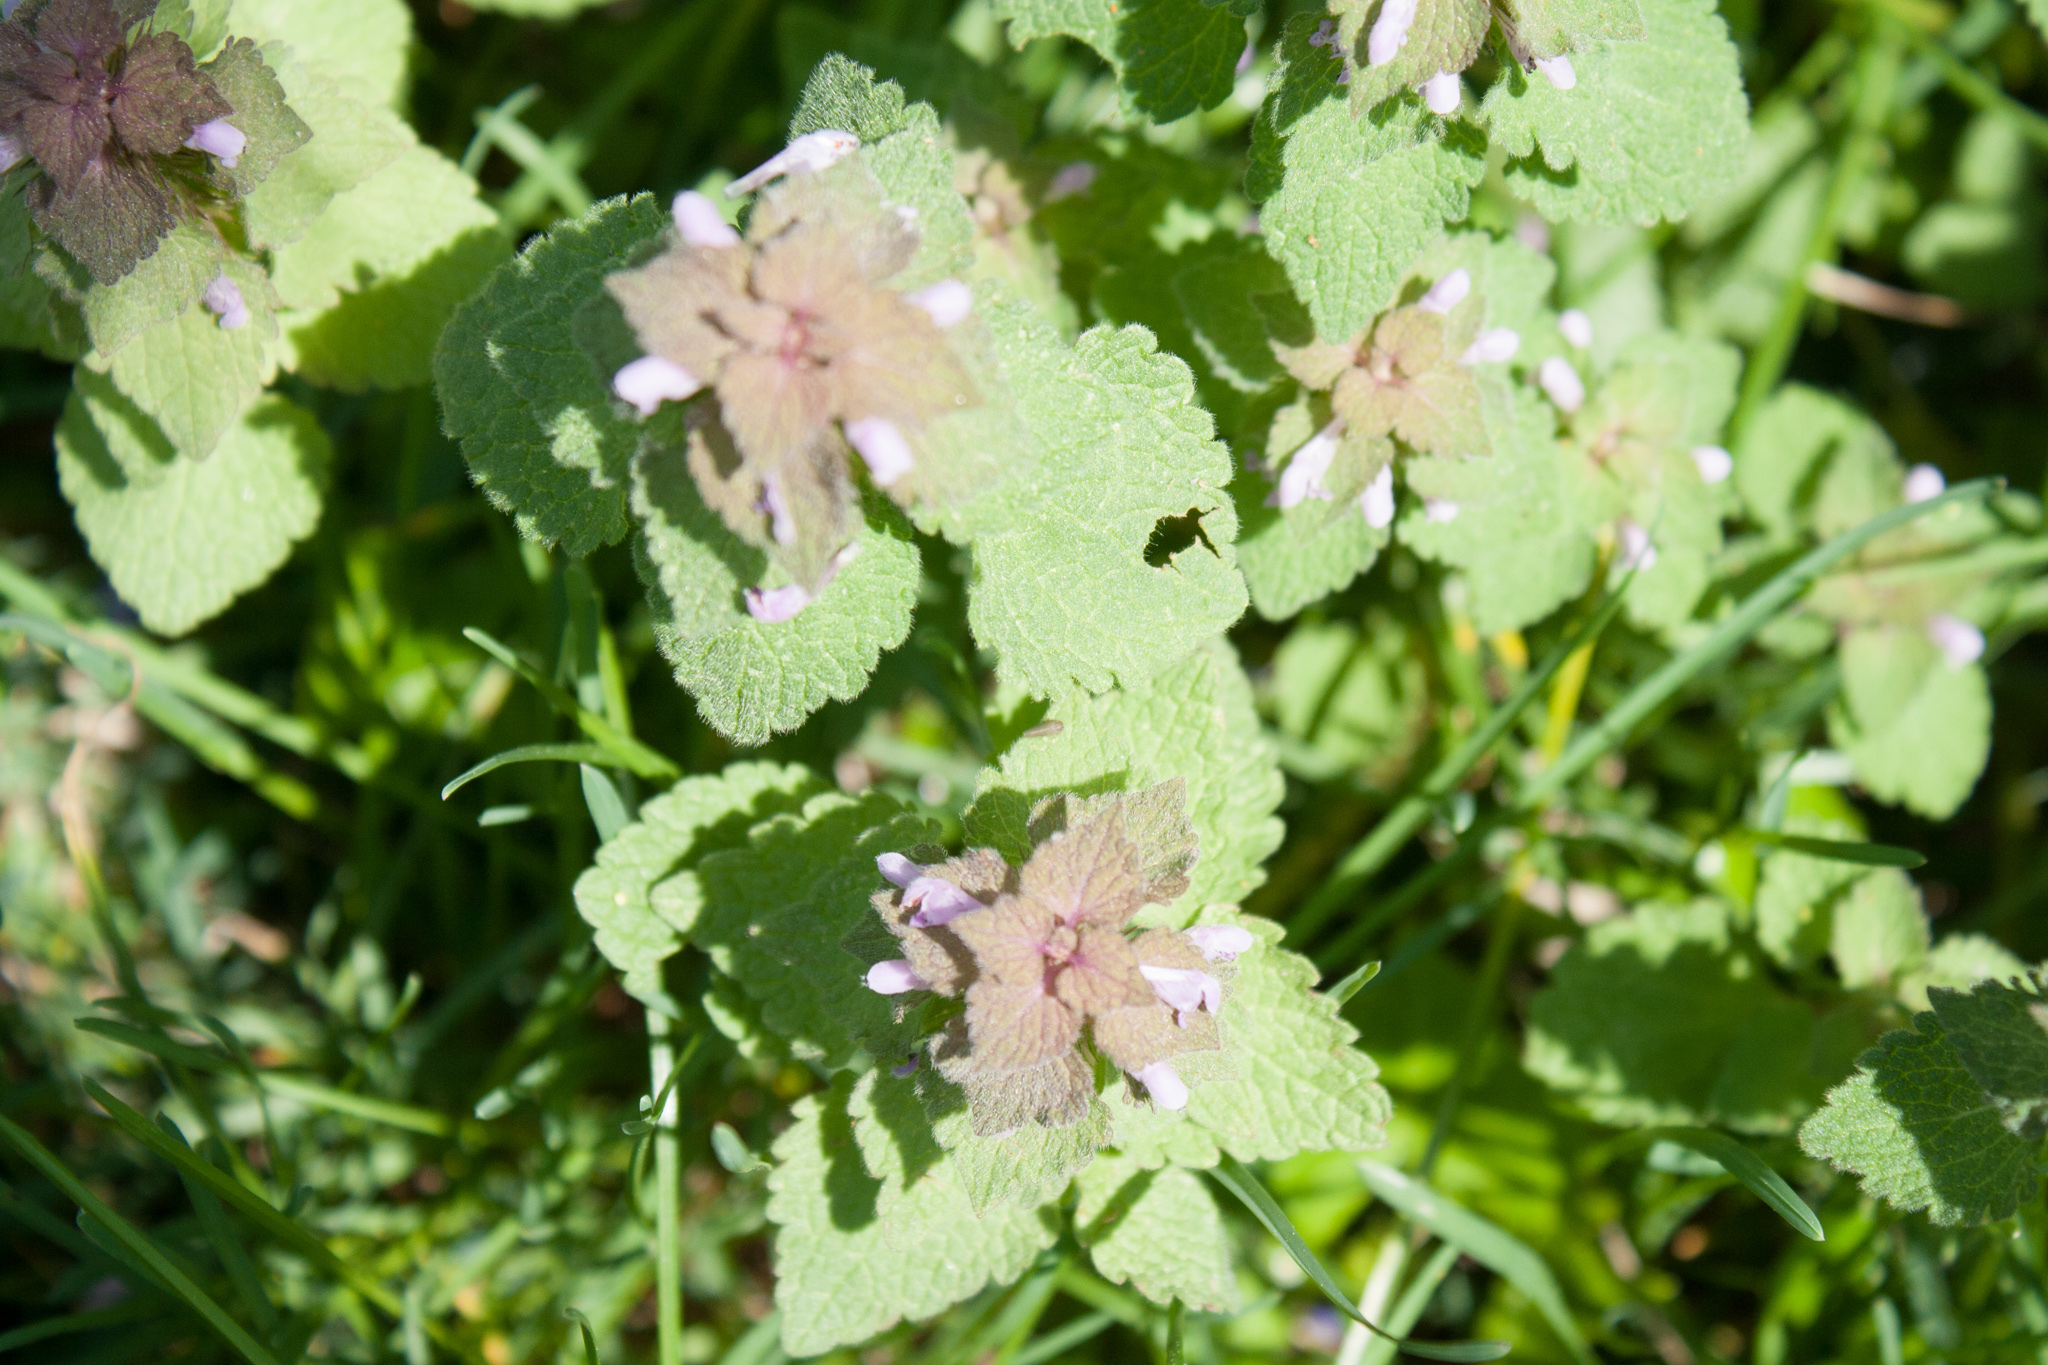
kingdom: Plantae
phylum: Tracheophyta
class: Magnoliopsida
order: Lamiales
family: Lamiaceae
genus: Lamium
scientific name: Lamium purpureum
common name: Red dead-nettle
